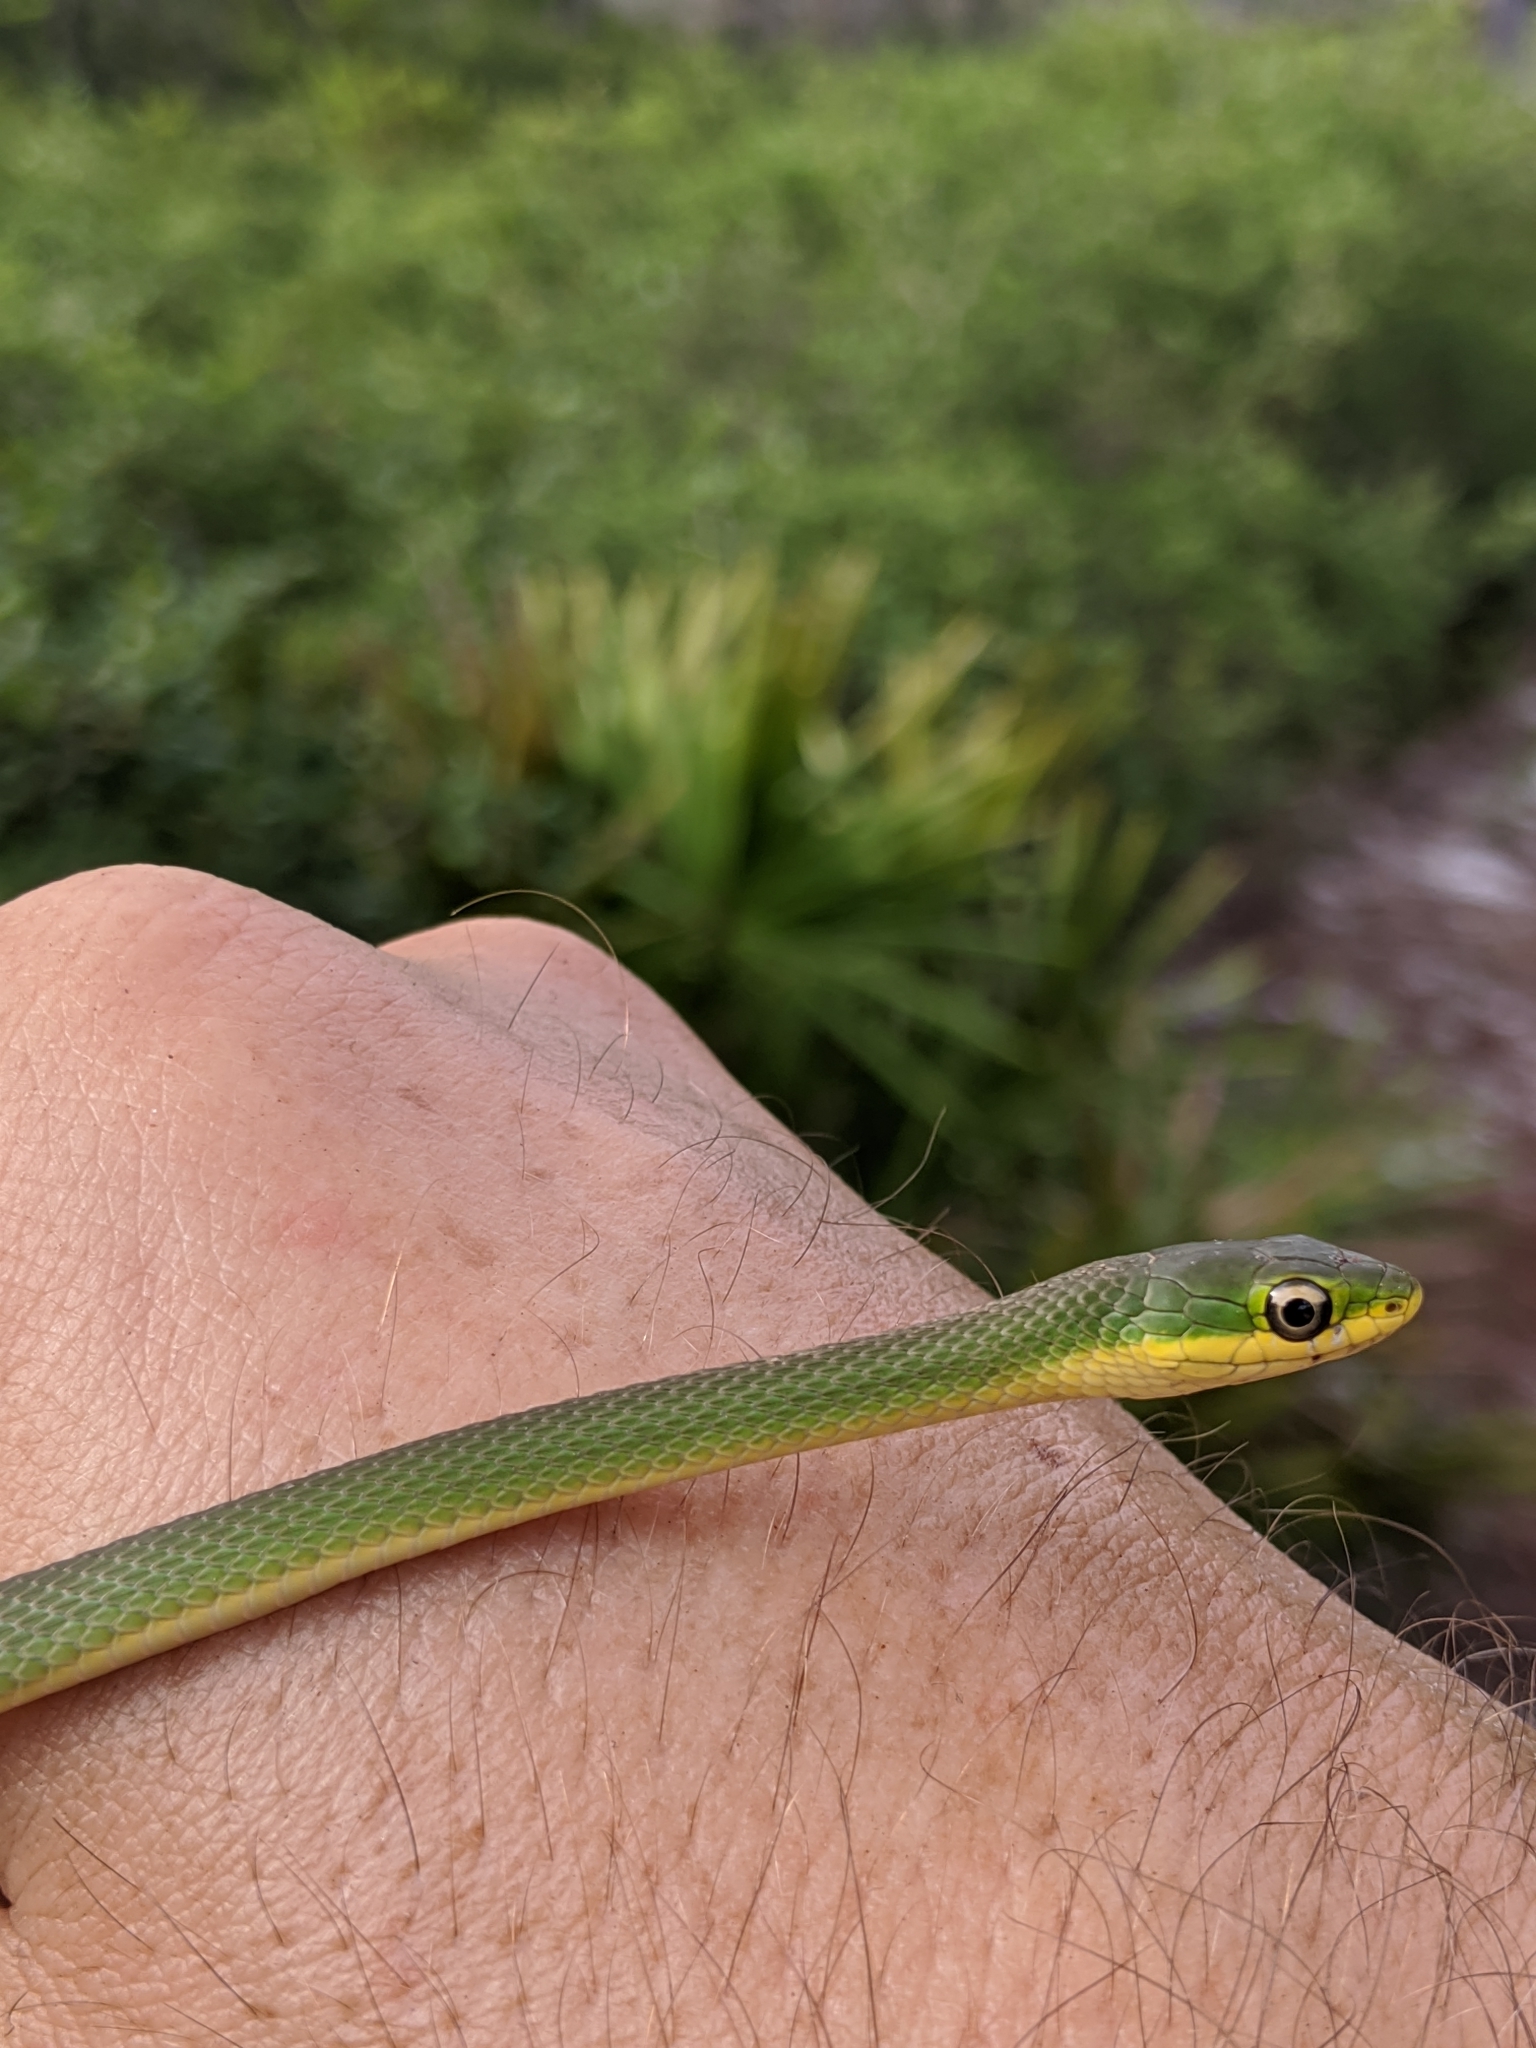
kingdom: Animalia
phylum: Chordata
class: Squamata
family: Colubridae
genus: Opheodrys
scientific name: Opheodrys aestivus
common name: Rough greensnake
